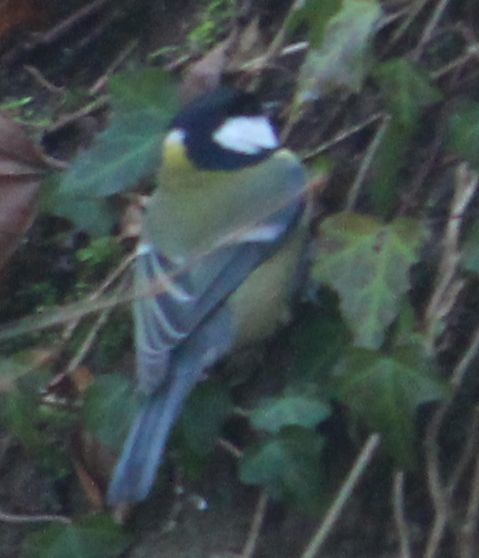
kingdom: Animalia
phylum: Chordata
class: Aves
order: Passeriformes
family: Paridae
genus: Parus
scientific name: Parus major
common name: Great tit
